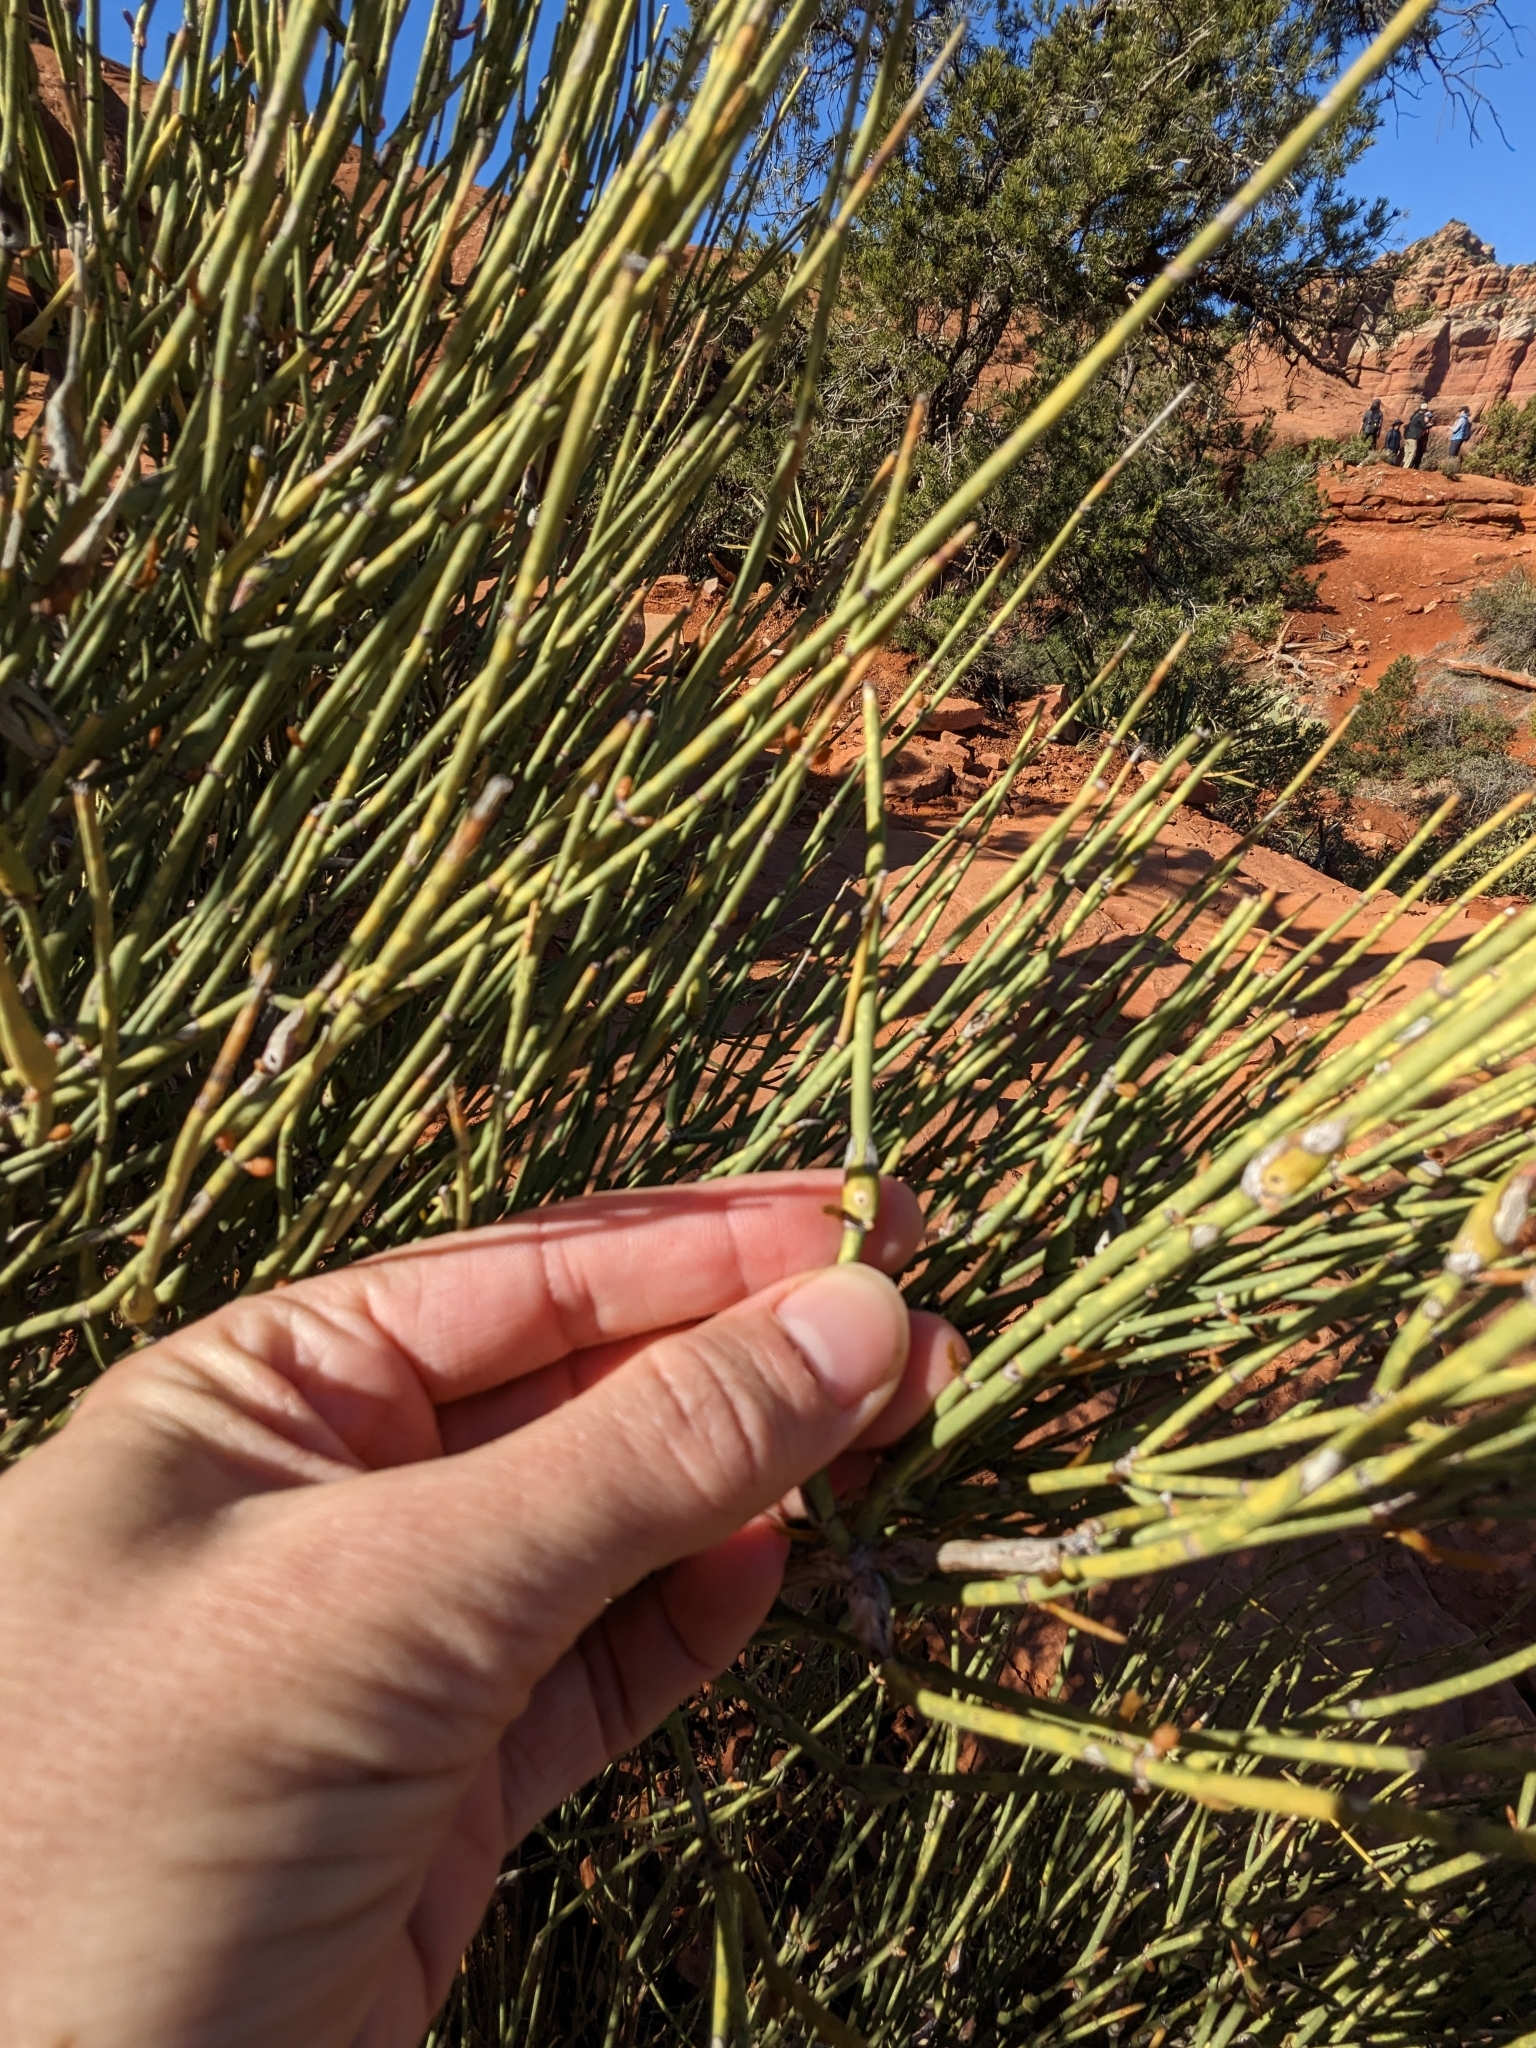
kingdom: Animalia
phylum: Arthropoda
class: Insecta
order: Diptera
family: Cecidomyiidae
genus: Lasioptera
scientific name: Lasioptera ephedrae
